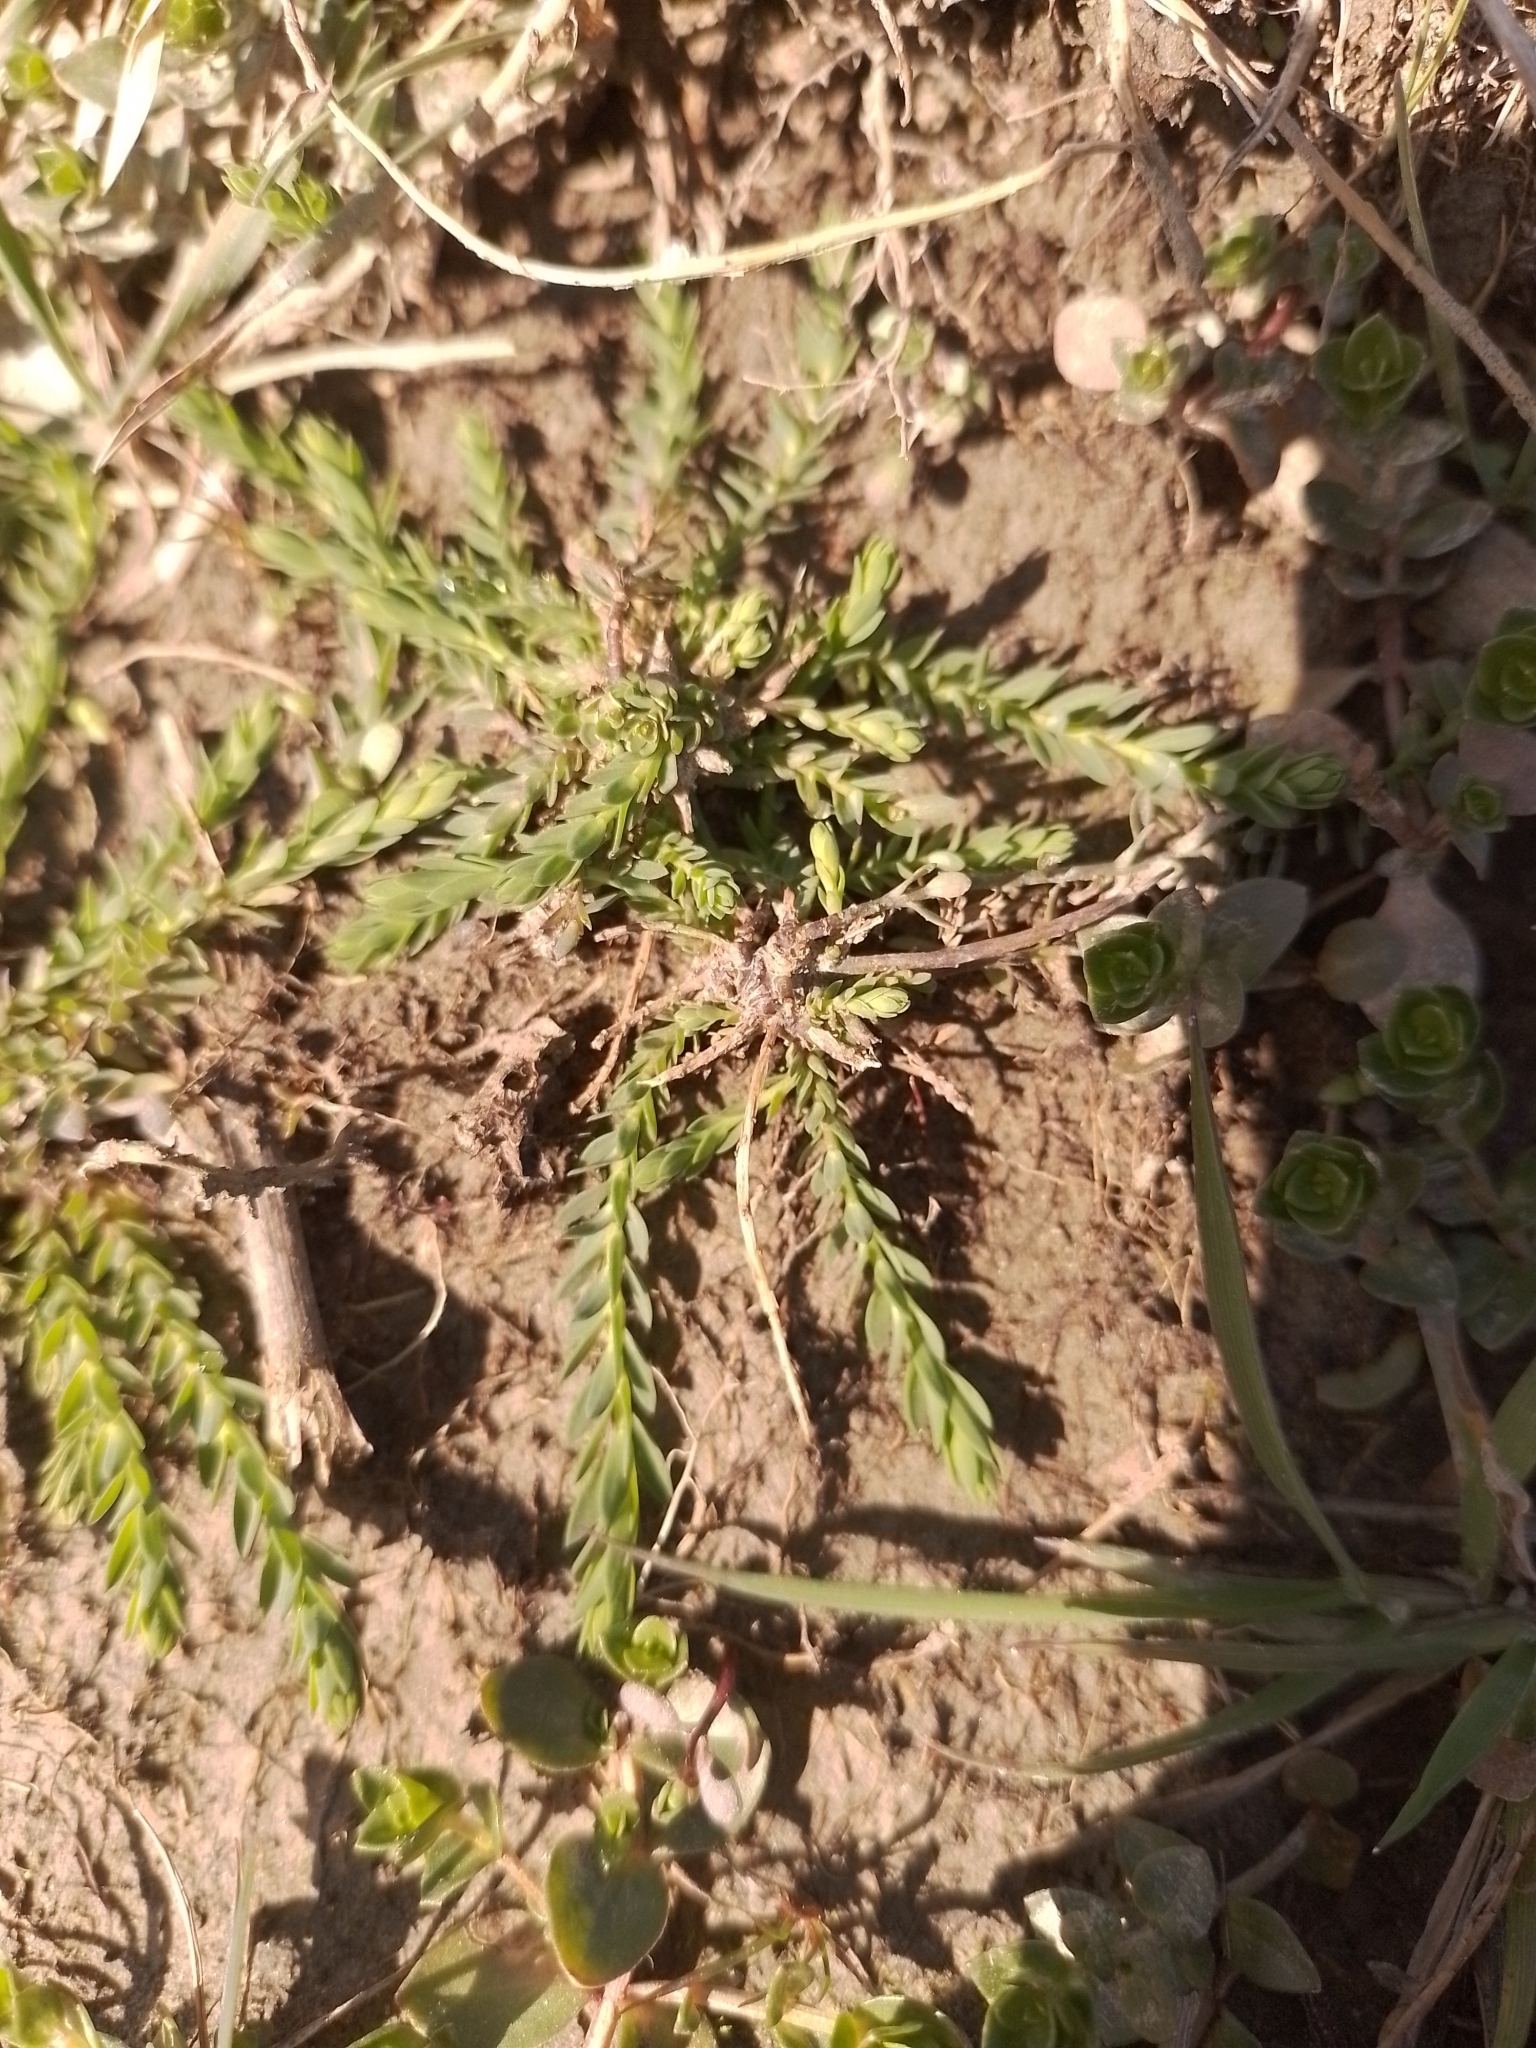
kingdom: Plantae
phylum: Tracheophyta
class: Magnoliopsida
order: Malpighiales
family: Linaceae
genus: Linum
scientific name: Linum bienne
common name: Pale flax
